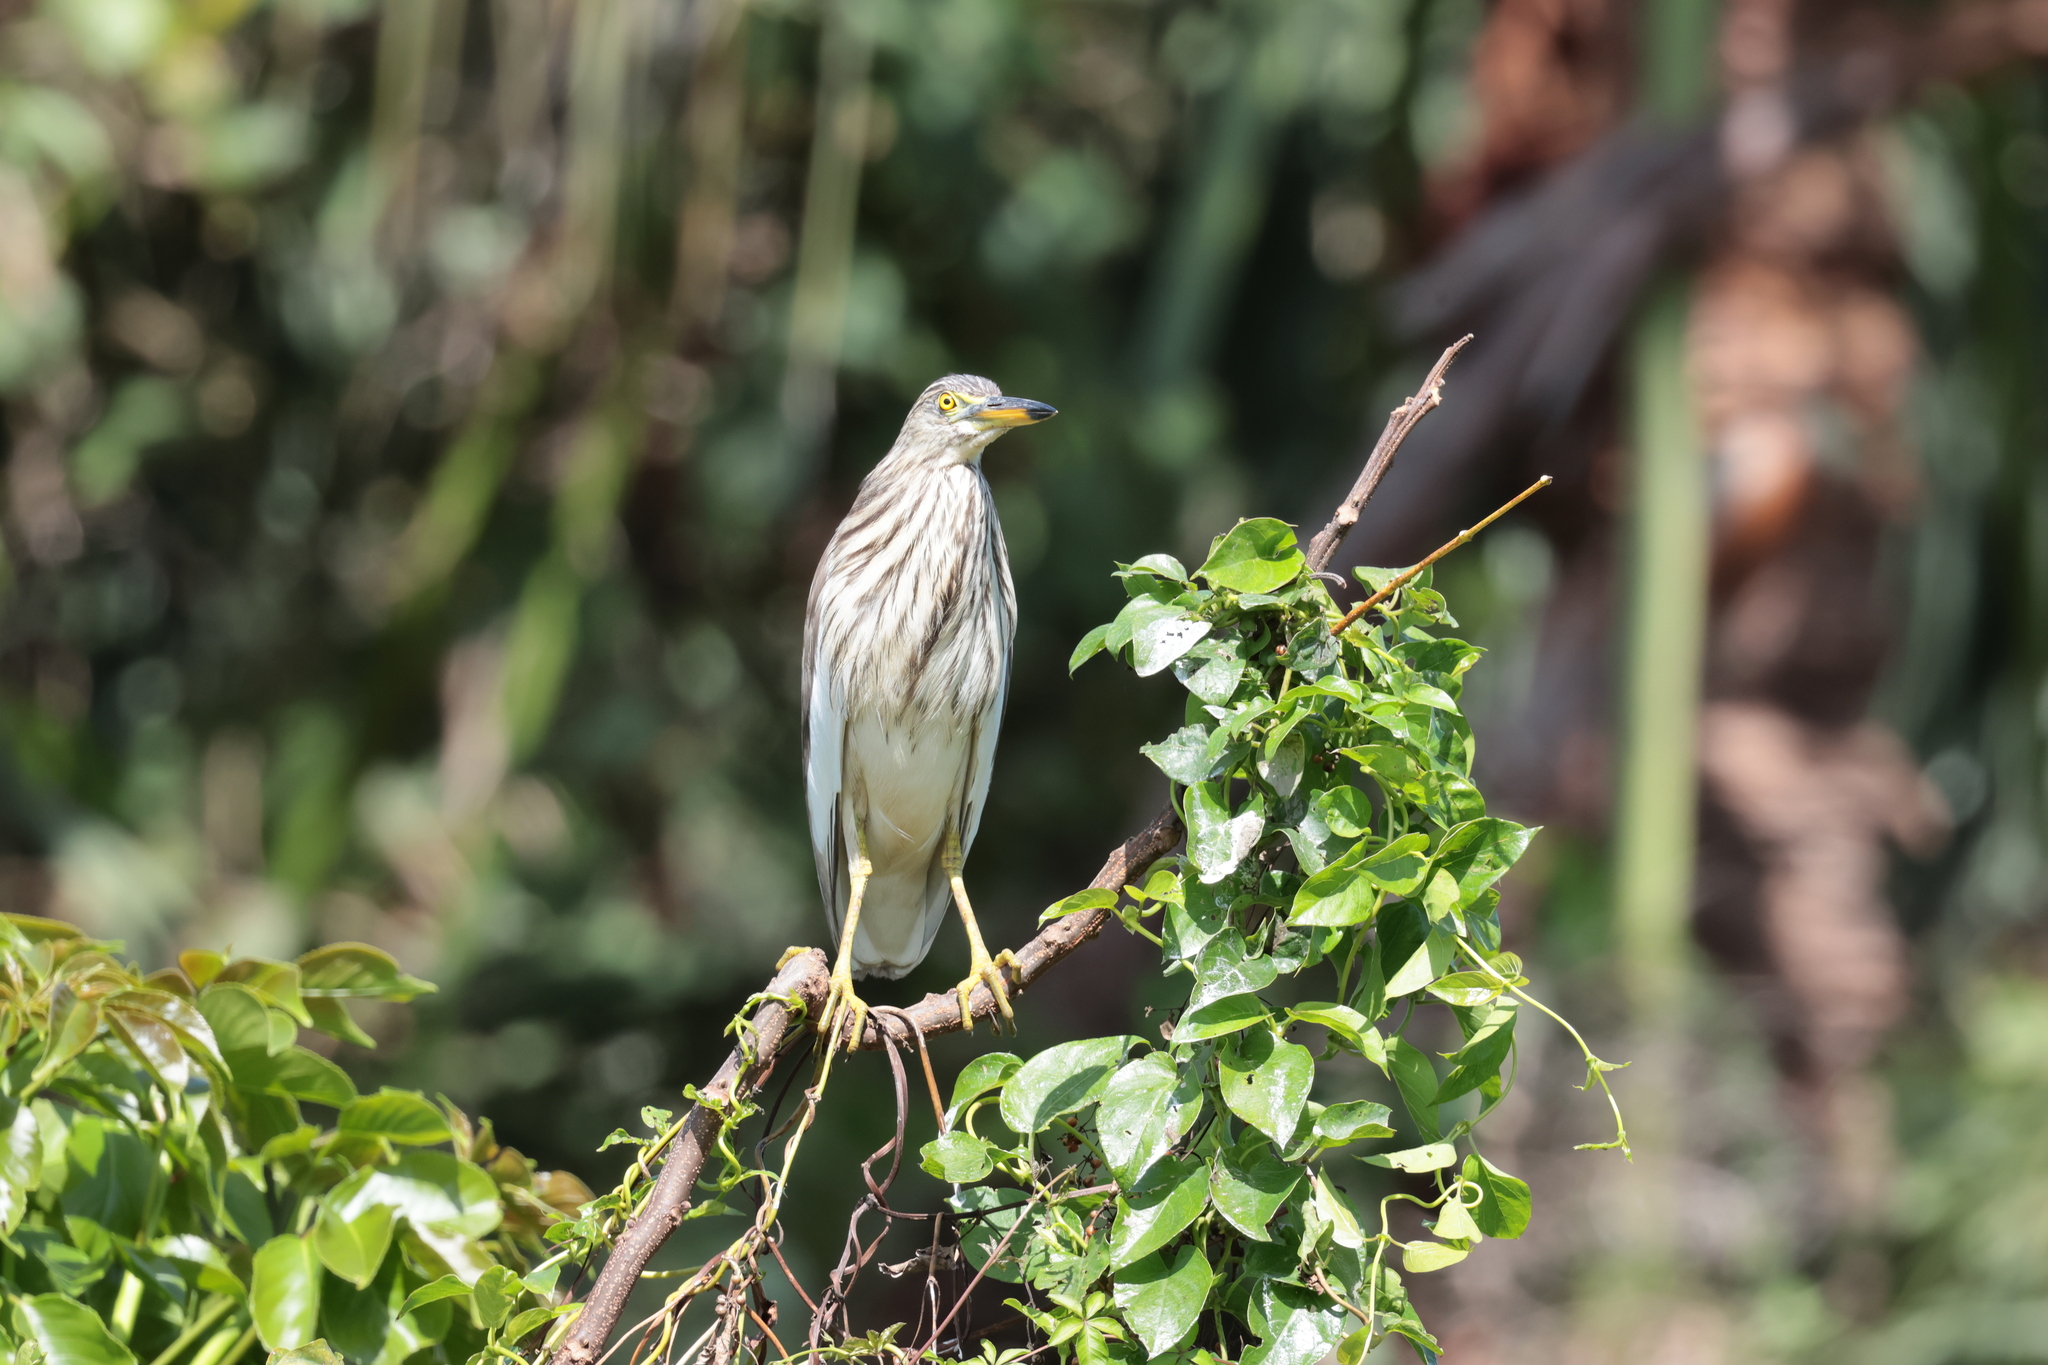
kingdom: Animalia
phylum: Chordata
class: Aves
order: Pelecaniformes
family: Ardeidae
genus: Ardeola
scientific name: Ardeola bacchus
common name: Chinese pond heron
